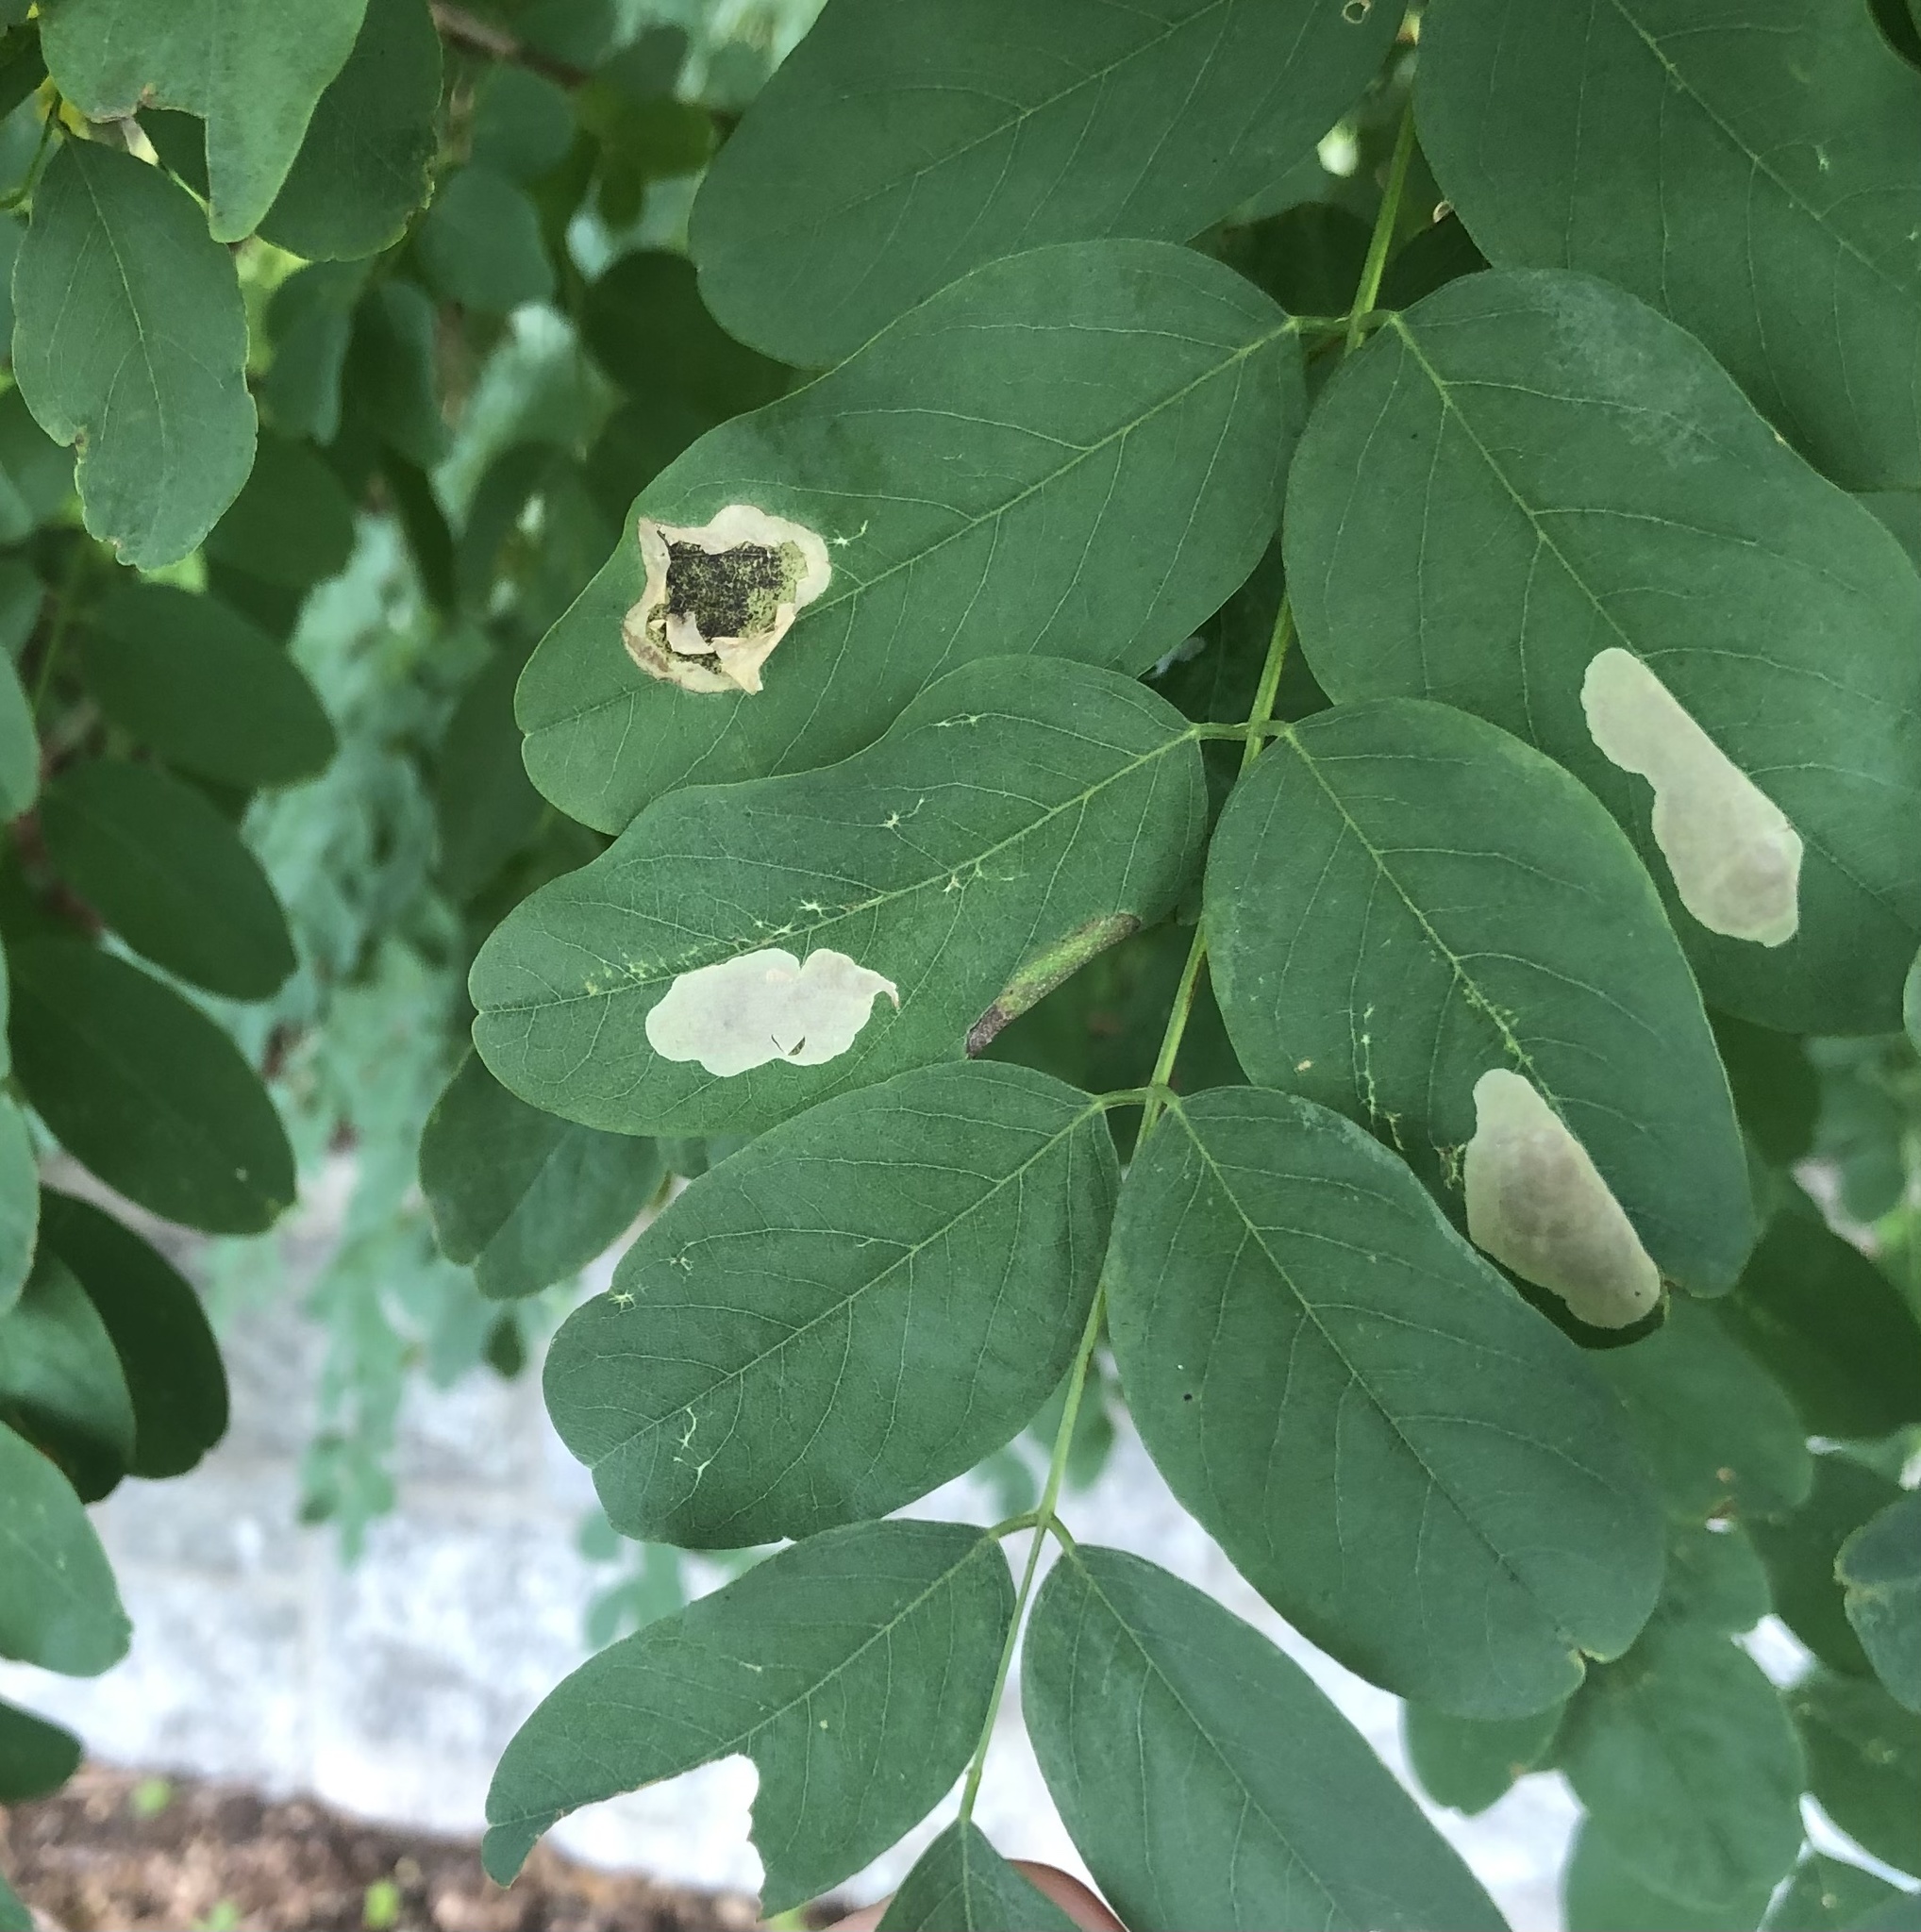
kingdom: Animalia
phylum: Arthropoda
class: Insecta
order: Lepidoptera
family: Gracillariidae
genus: Chrysaster
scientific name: Chrysaster ostensackenella
